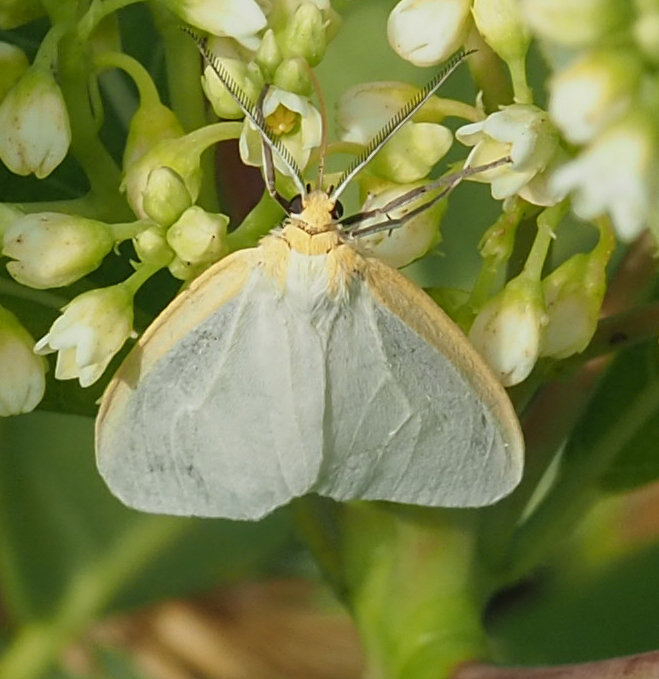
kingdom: Animalia
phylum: Arthropoda
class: Insecta
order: Lepidoptera
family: Erebidae
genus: Cycnia
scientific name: Cycnia tenera
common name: Delicate cycnia moth
